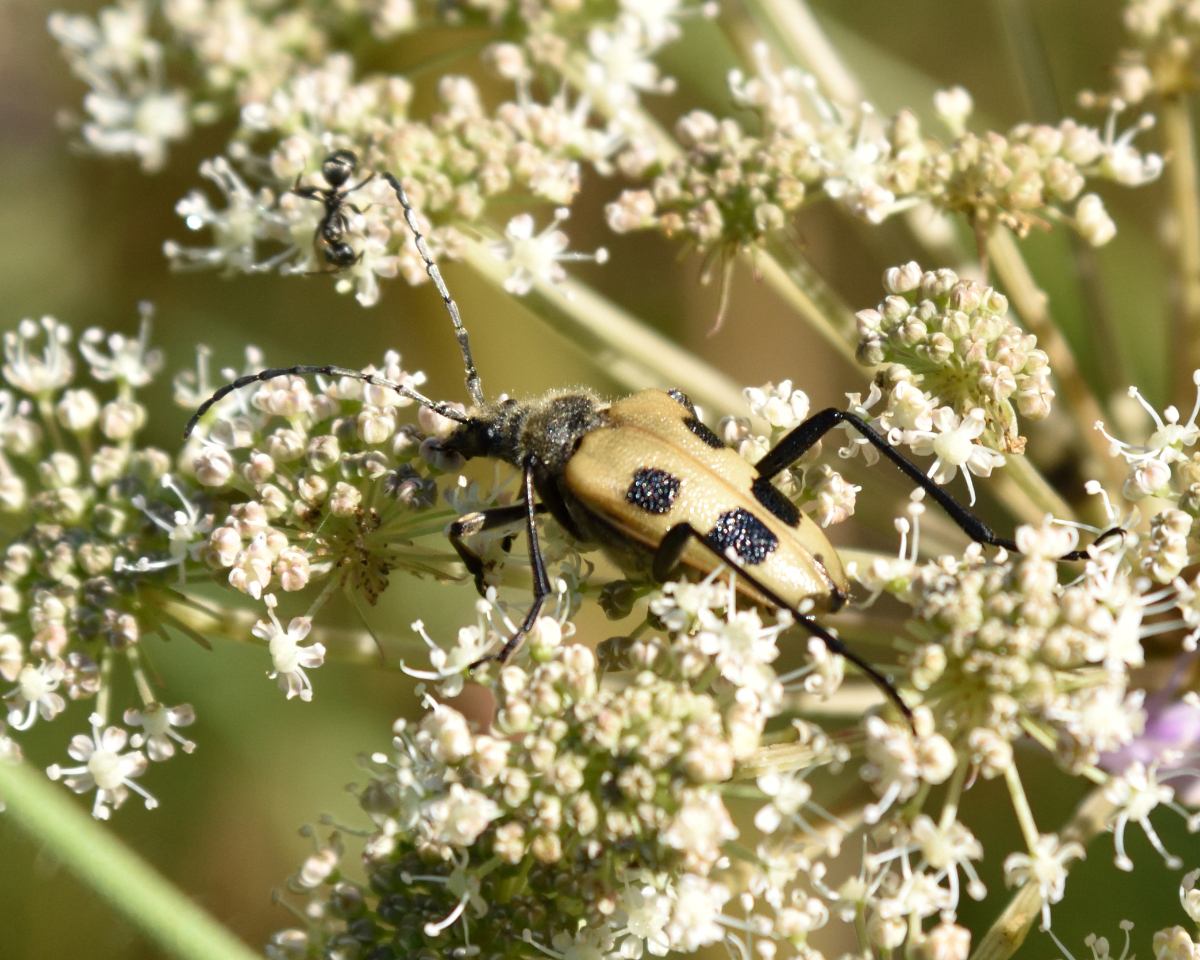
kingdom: Animalia
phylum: Arthropoda
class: Insecta
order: Coleoptera
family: Cerambycidae
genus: Pachyta
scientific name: Pachyta quadrimaculata
